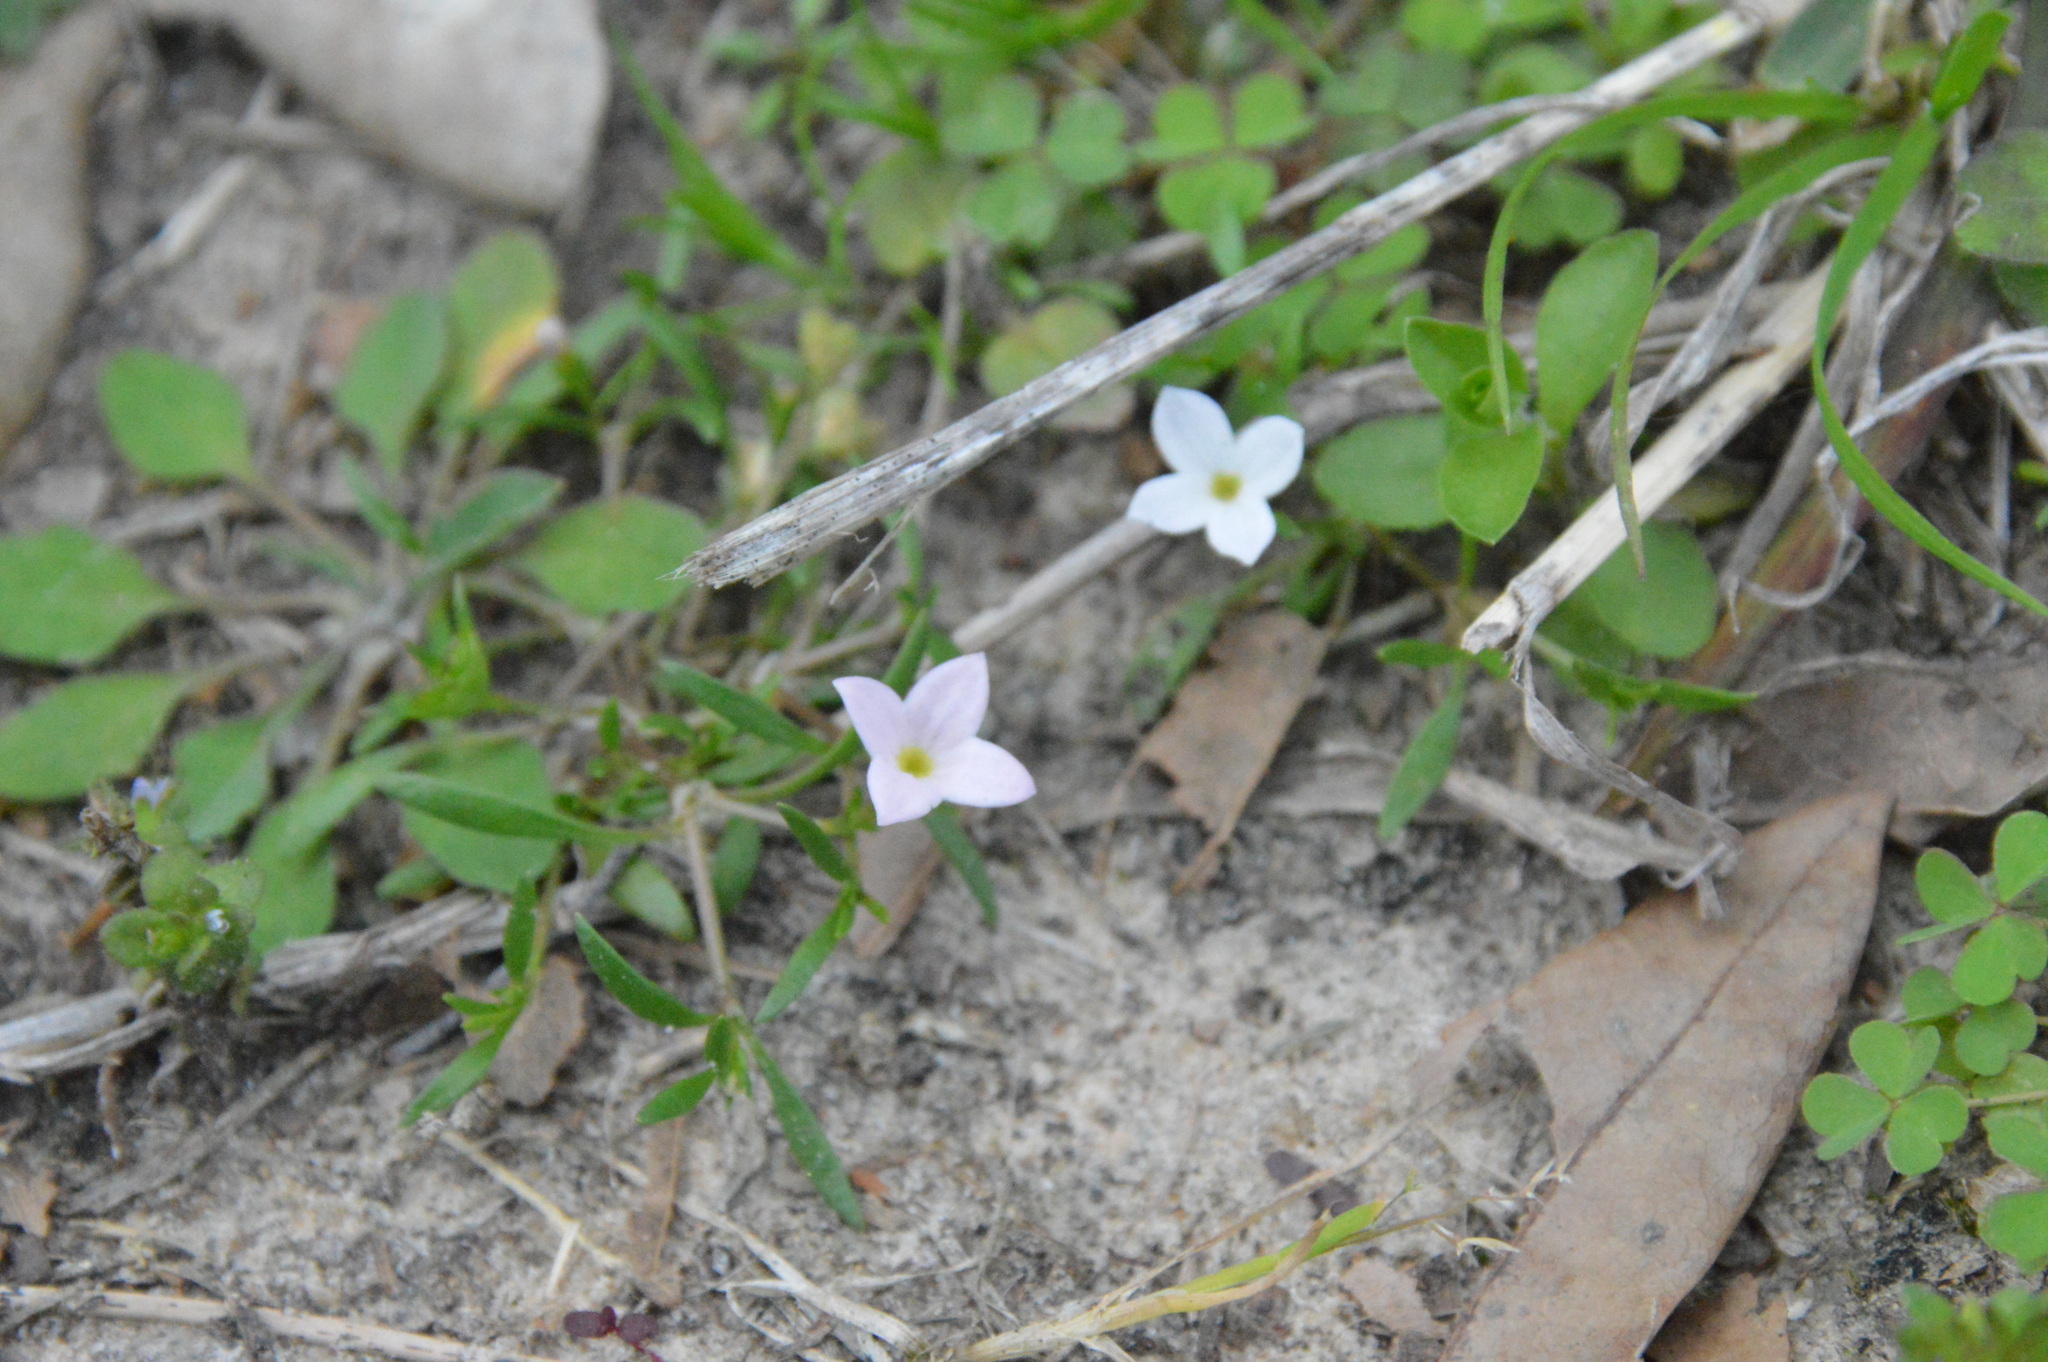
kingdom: Plantae
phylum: Tracheophyta
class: Magnoliopsida
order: Gentianales
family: Rubiaceae
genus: Houstonia
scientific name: Houstonia rosea
